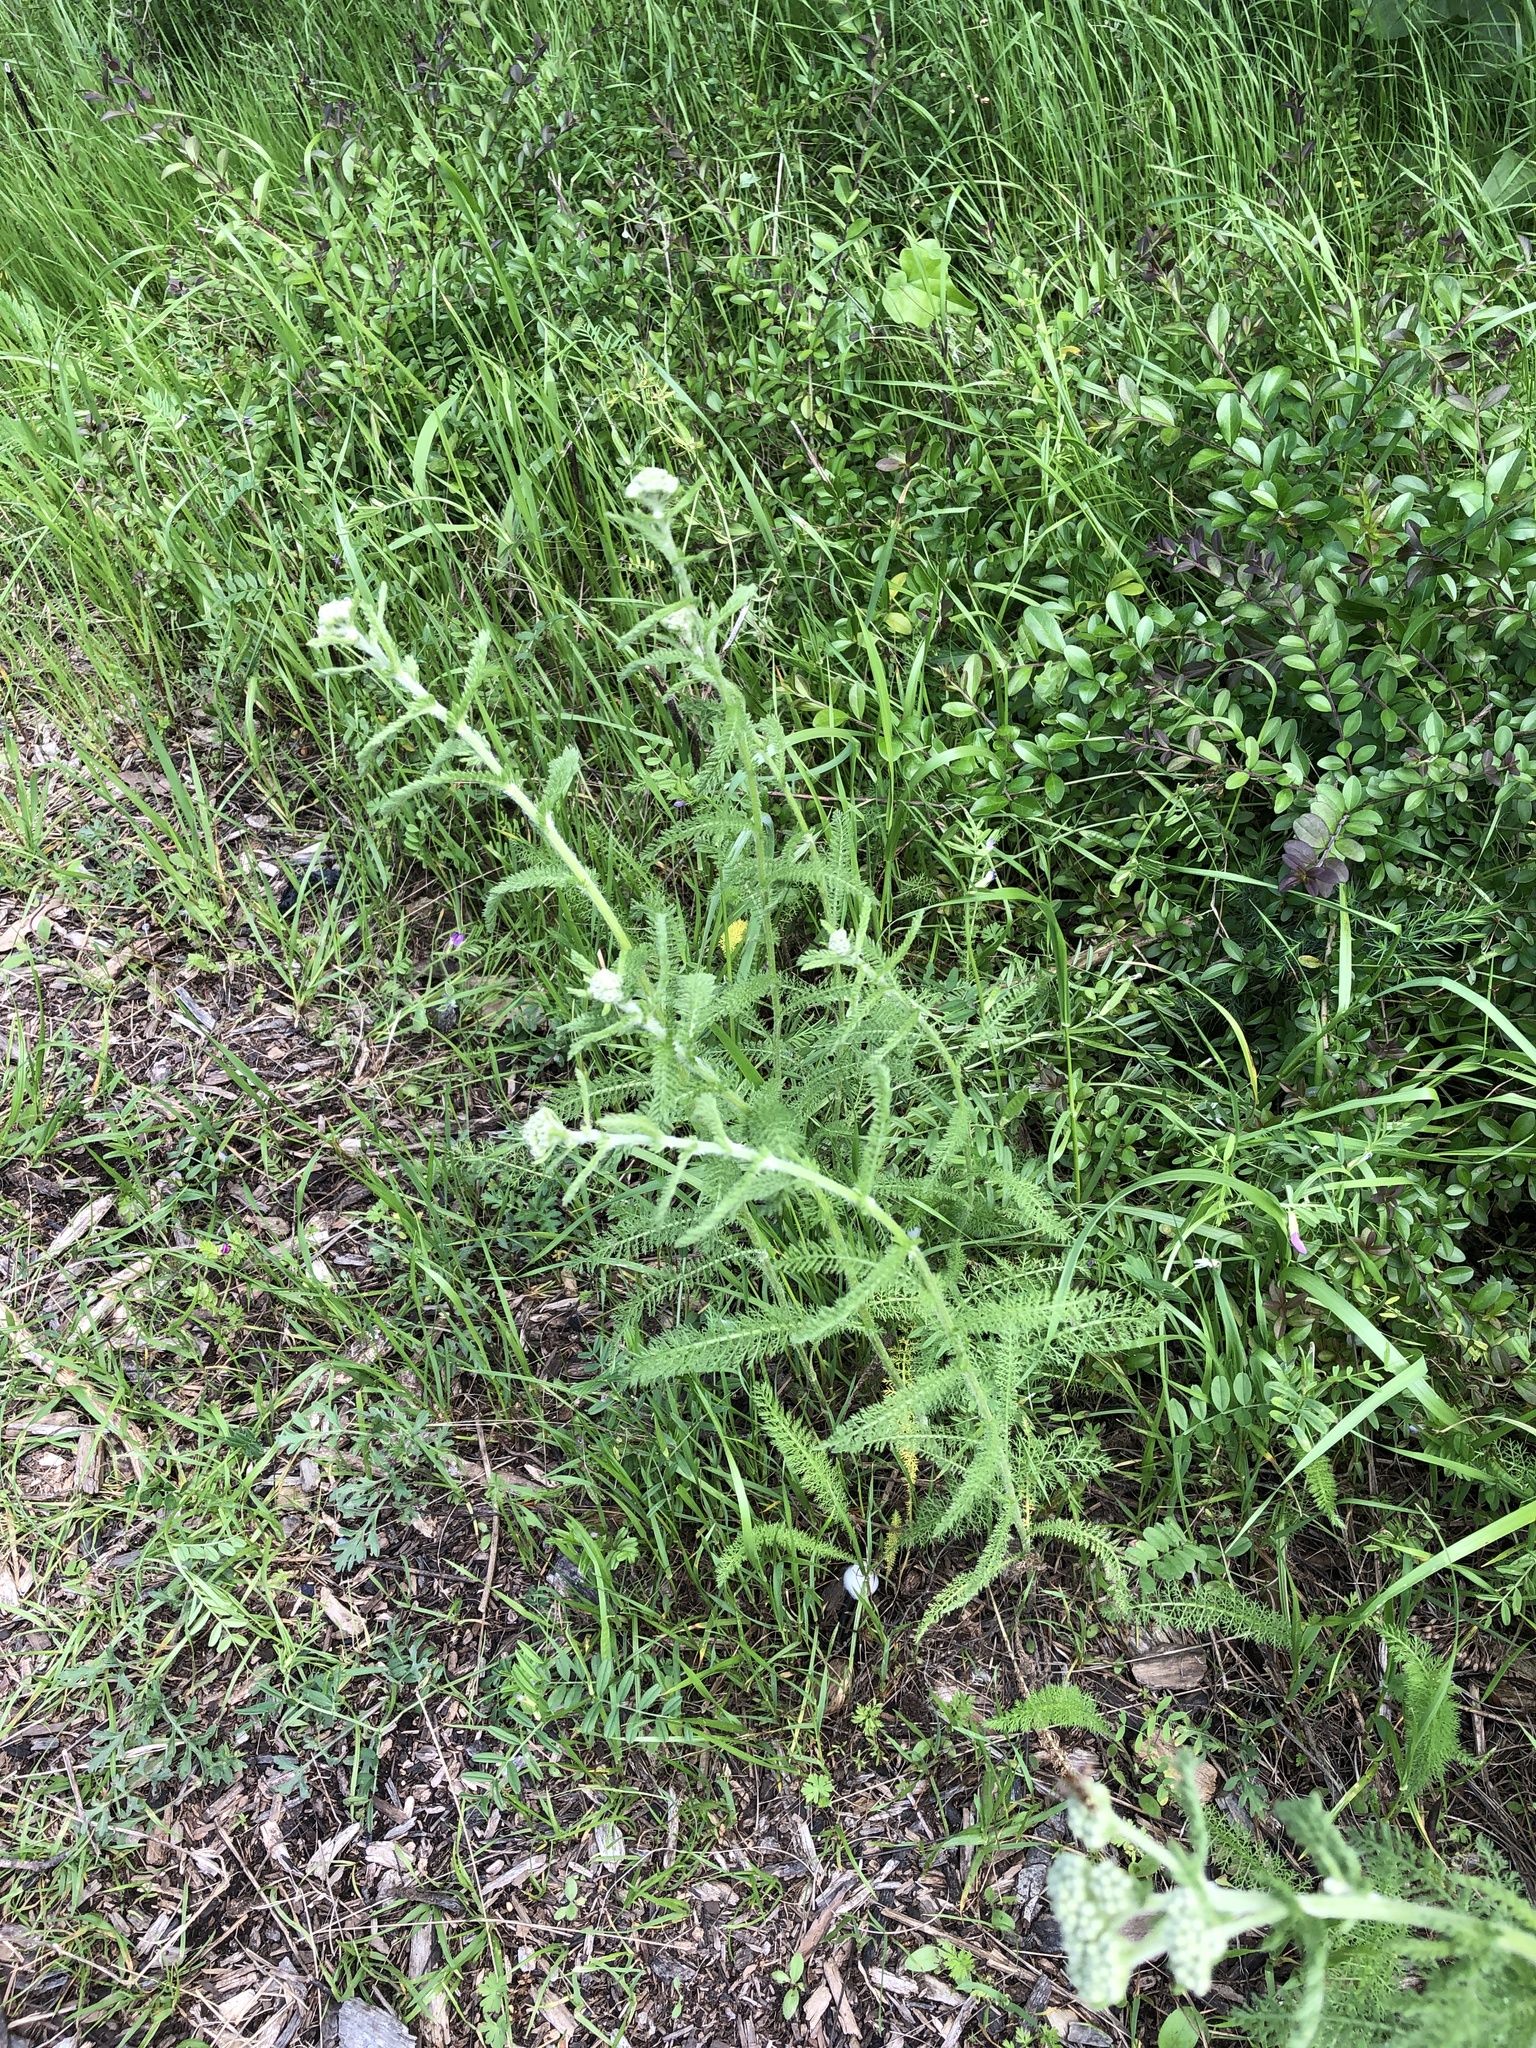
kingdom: Plantae
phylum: Tracheophyta
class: Magnoliopsida
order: Asterales
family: Asteraceae
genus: Achillea
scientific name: Achillea millefolium
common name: Yarrow
